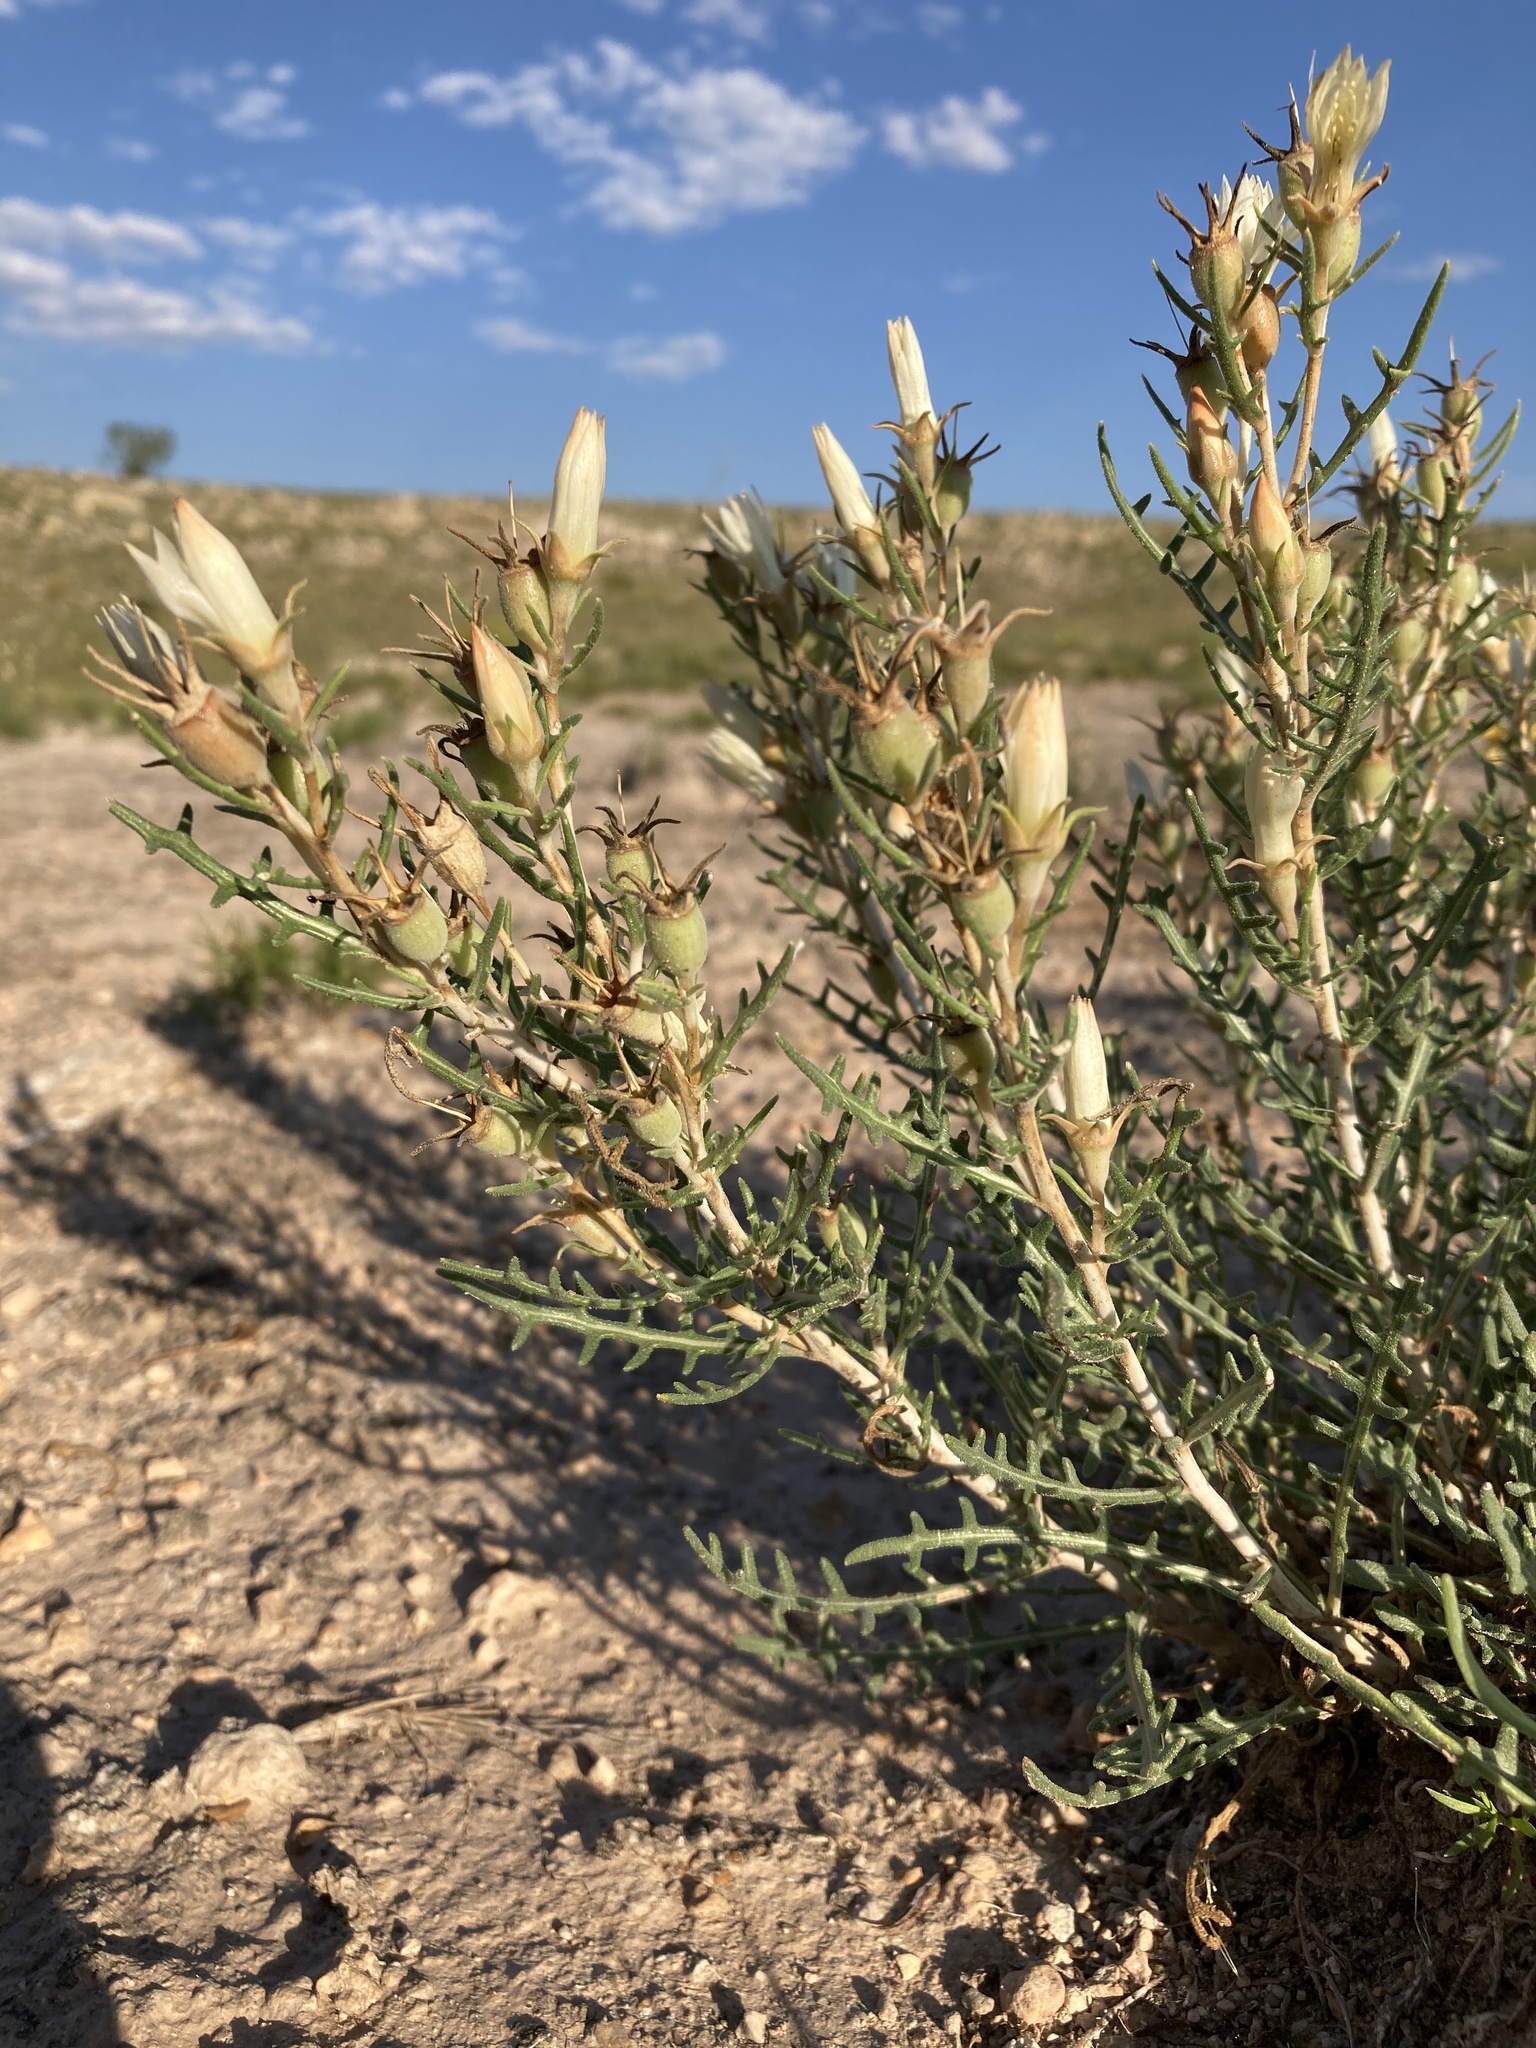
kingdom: Plantae
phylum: Tracheophyta
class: Magnoliopsida
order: Cornales
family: Loasaceae
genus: Mentzelia
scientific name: Mentzelia humilis
